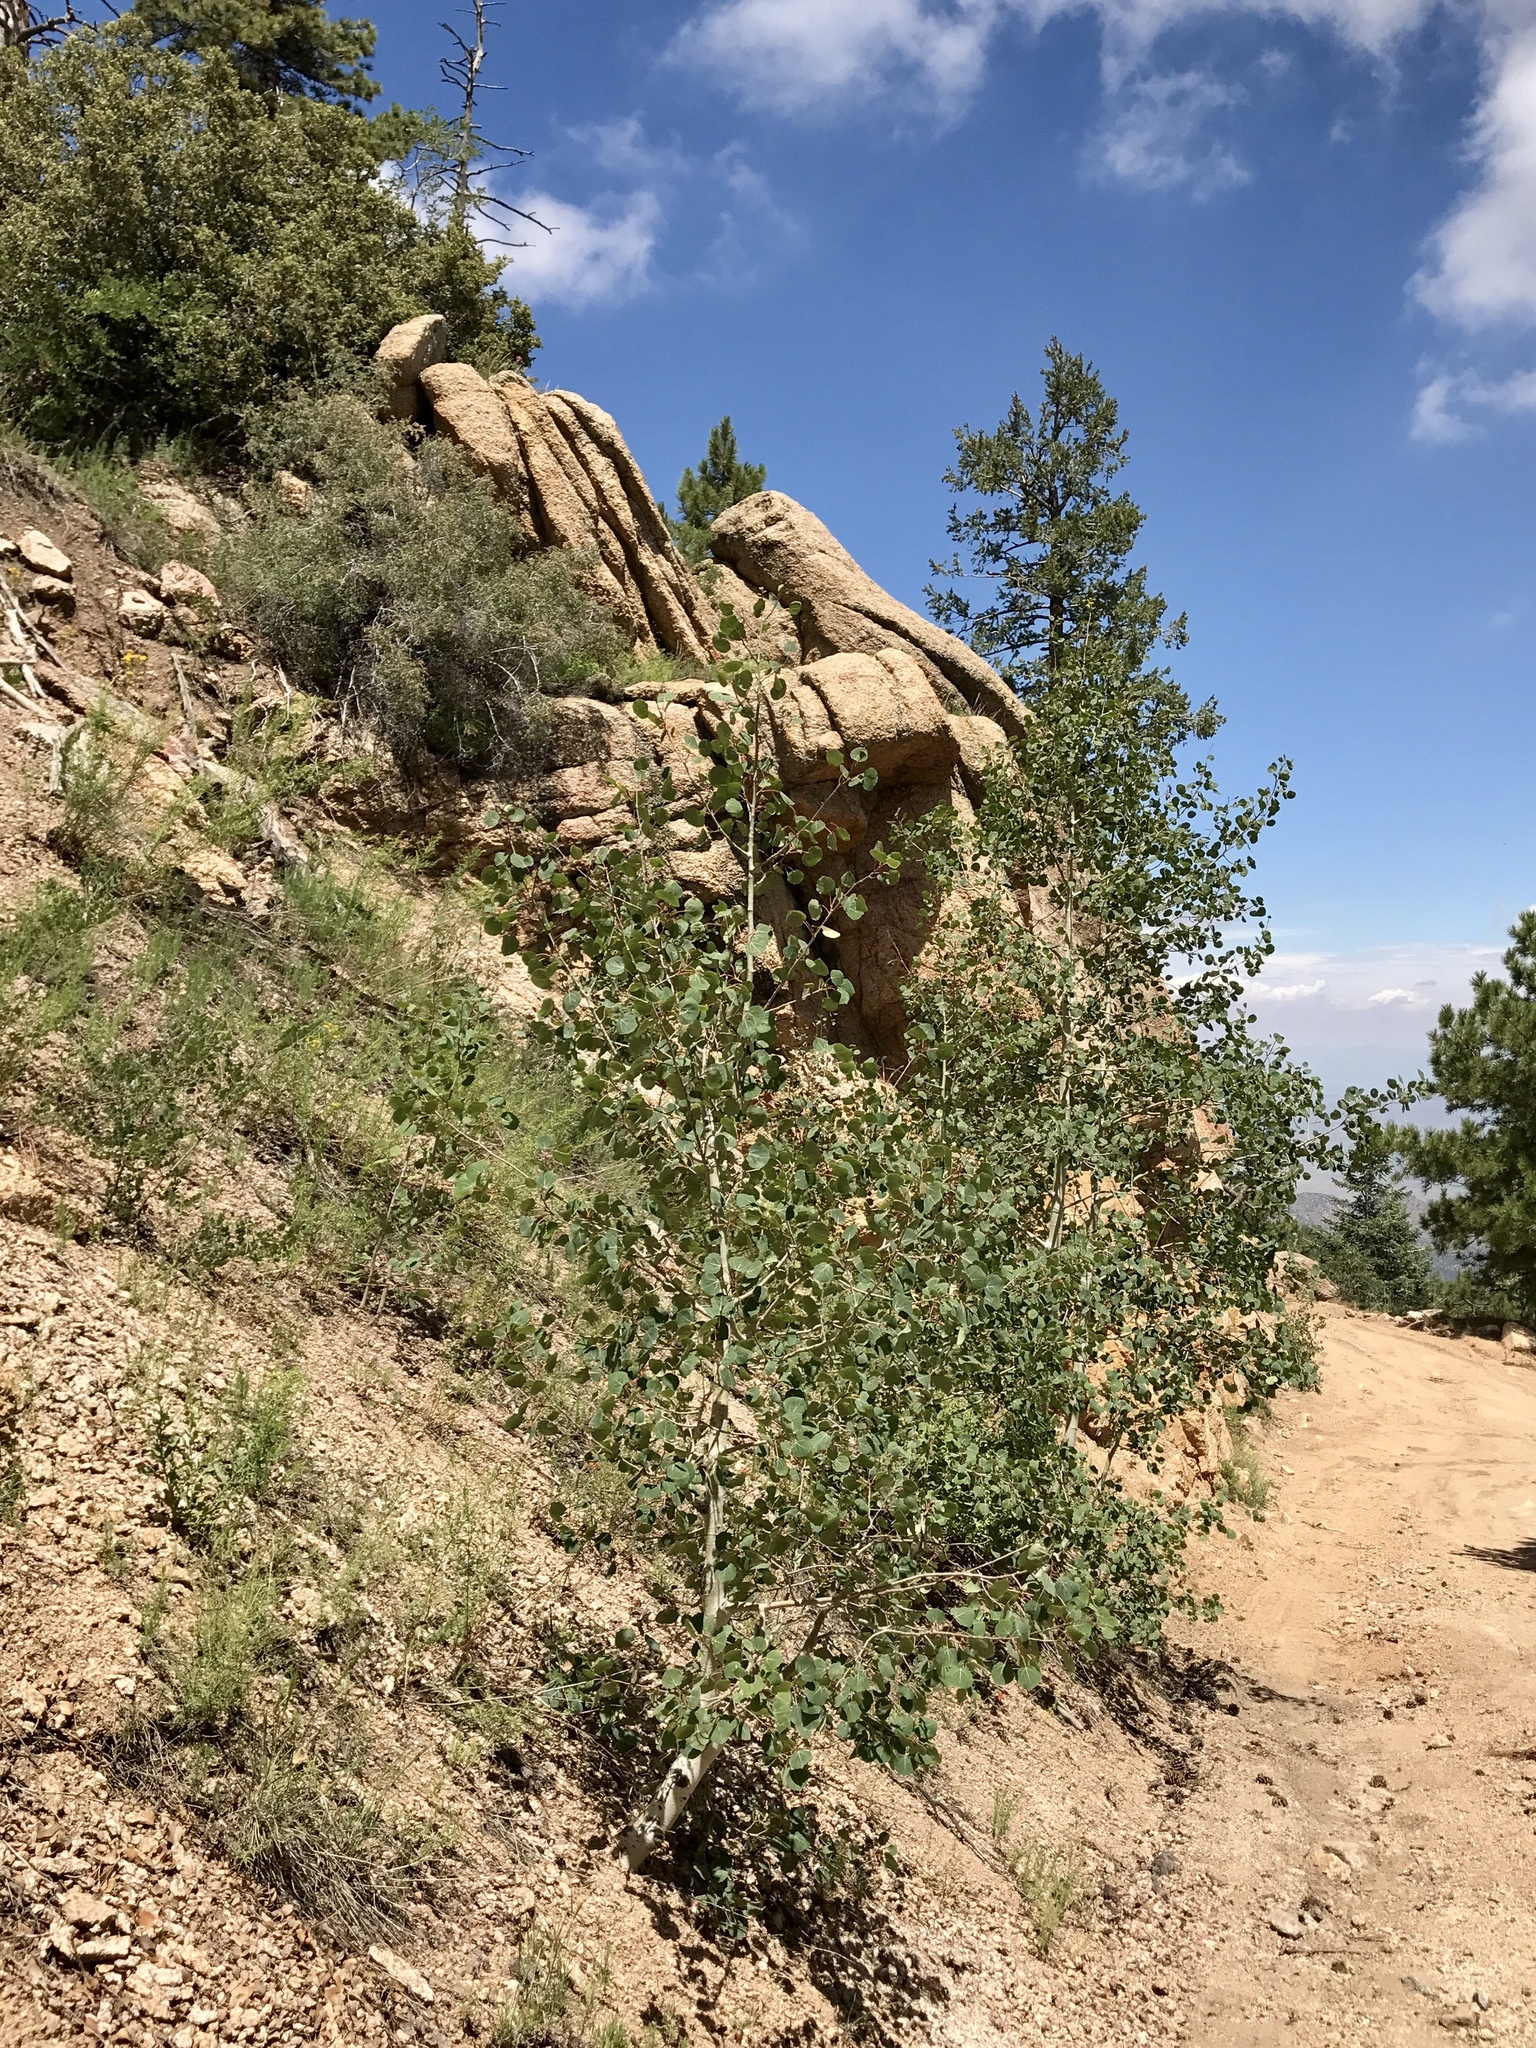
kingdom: Plantae
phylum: Tracheophyta
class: Magnoliopsida
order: Malpighiales
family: Salicaceae
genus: Populus
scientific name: Populus tremuloides
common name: Quaking aspen
